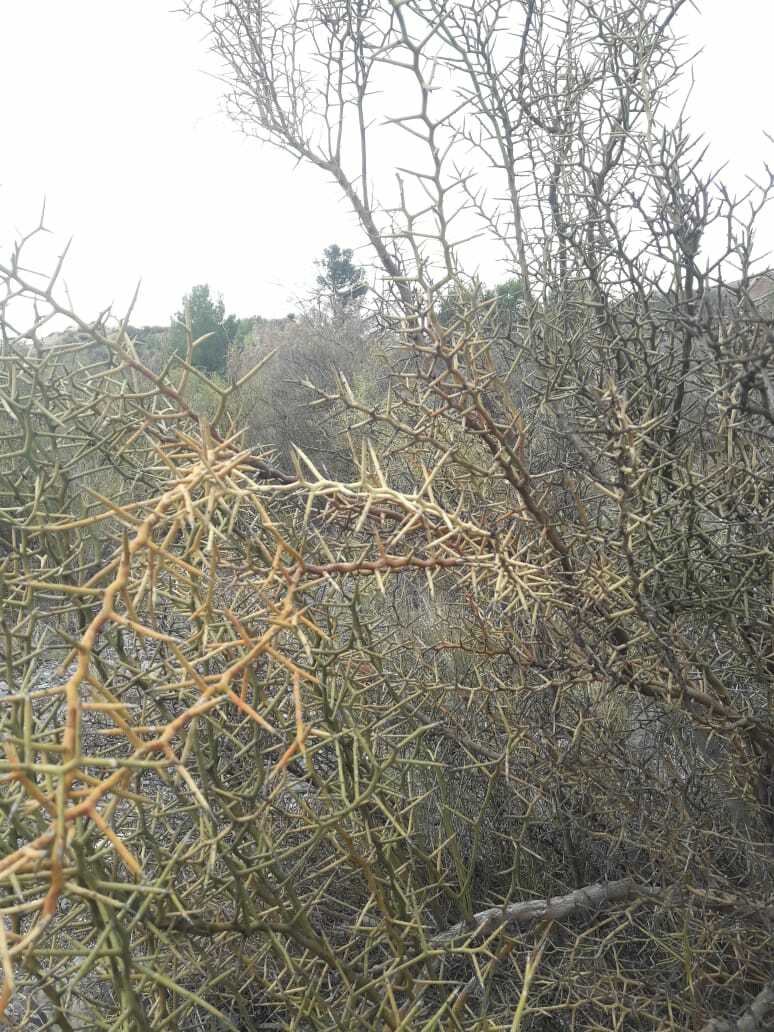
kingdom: Plantae
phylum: Tracheophyta
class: Magnoliopsida
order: Fabales
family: Polygalaceae
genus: Bredemeyera
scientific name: Bredemeyera colletioides
